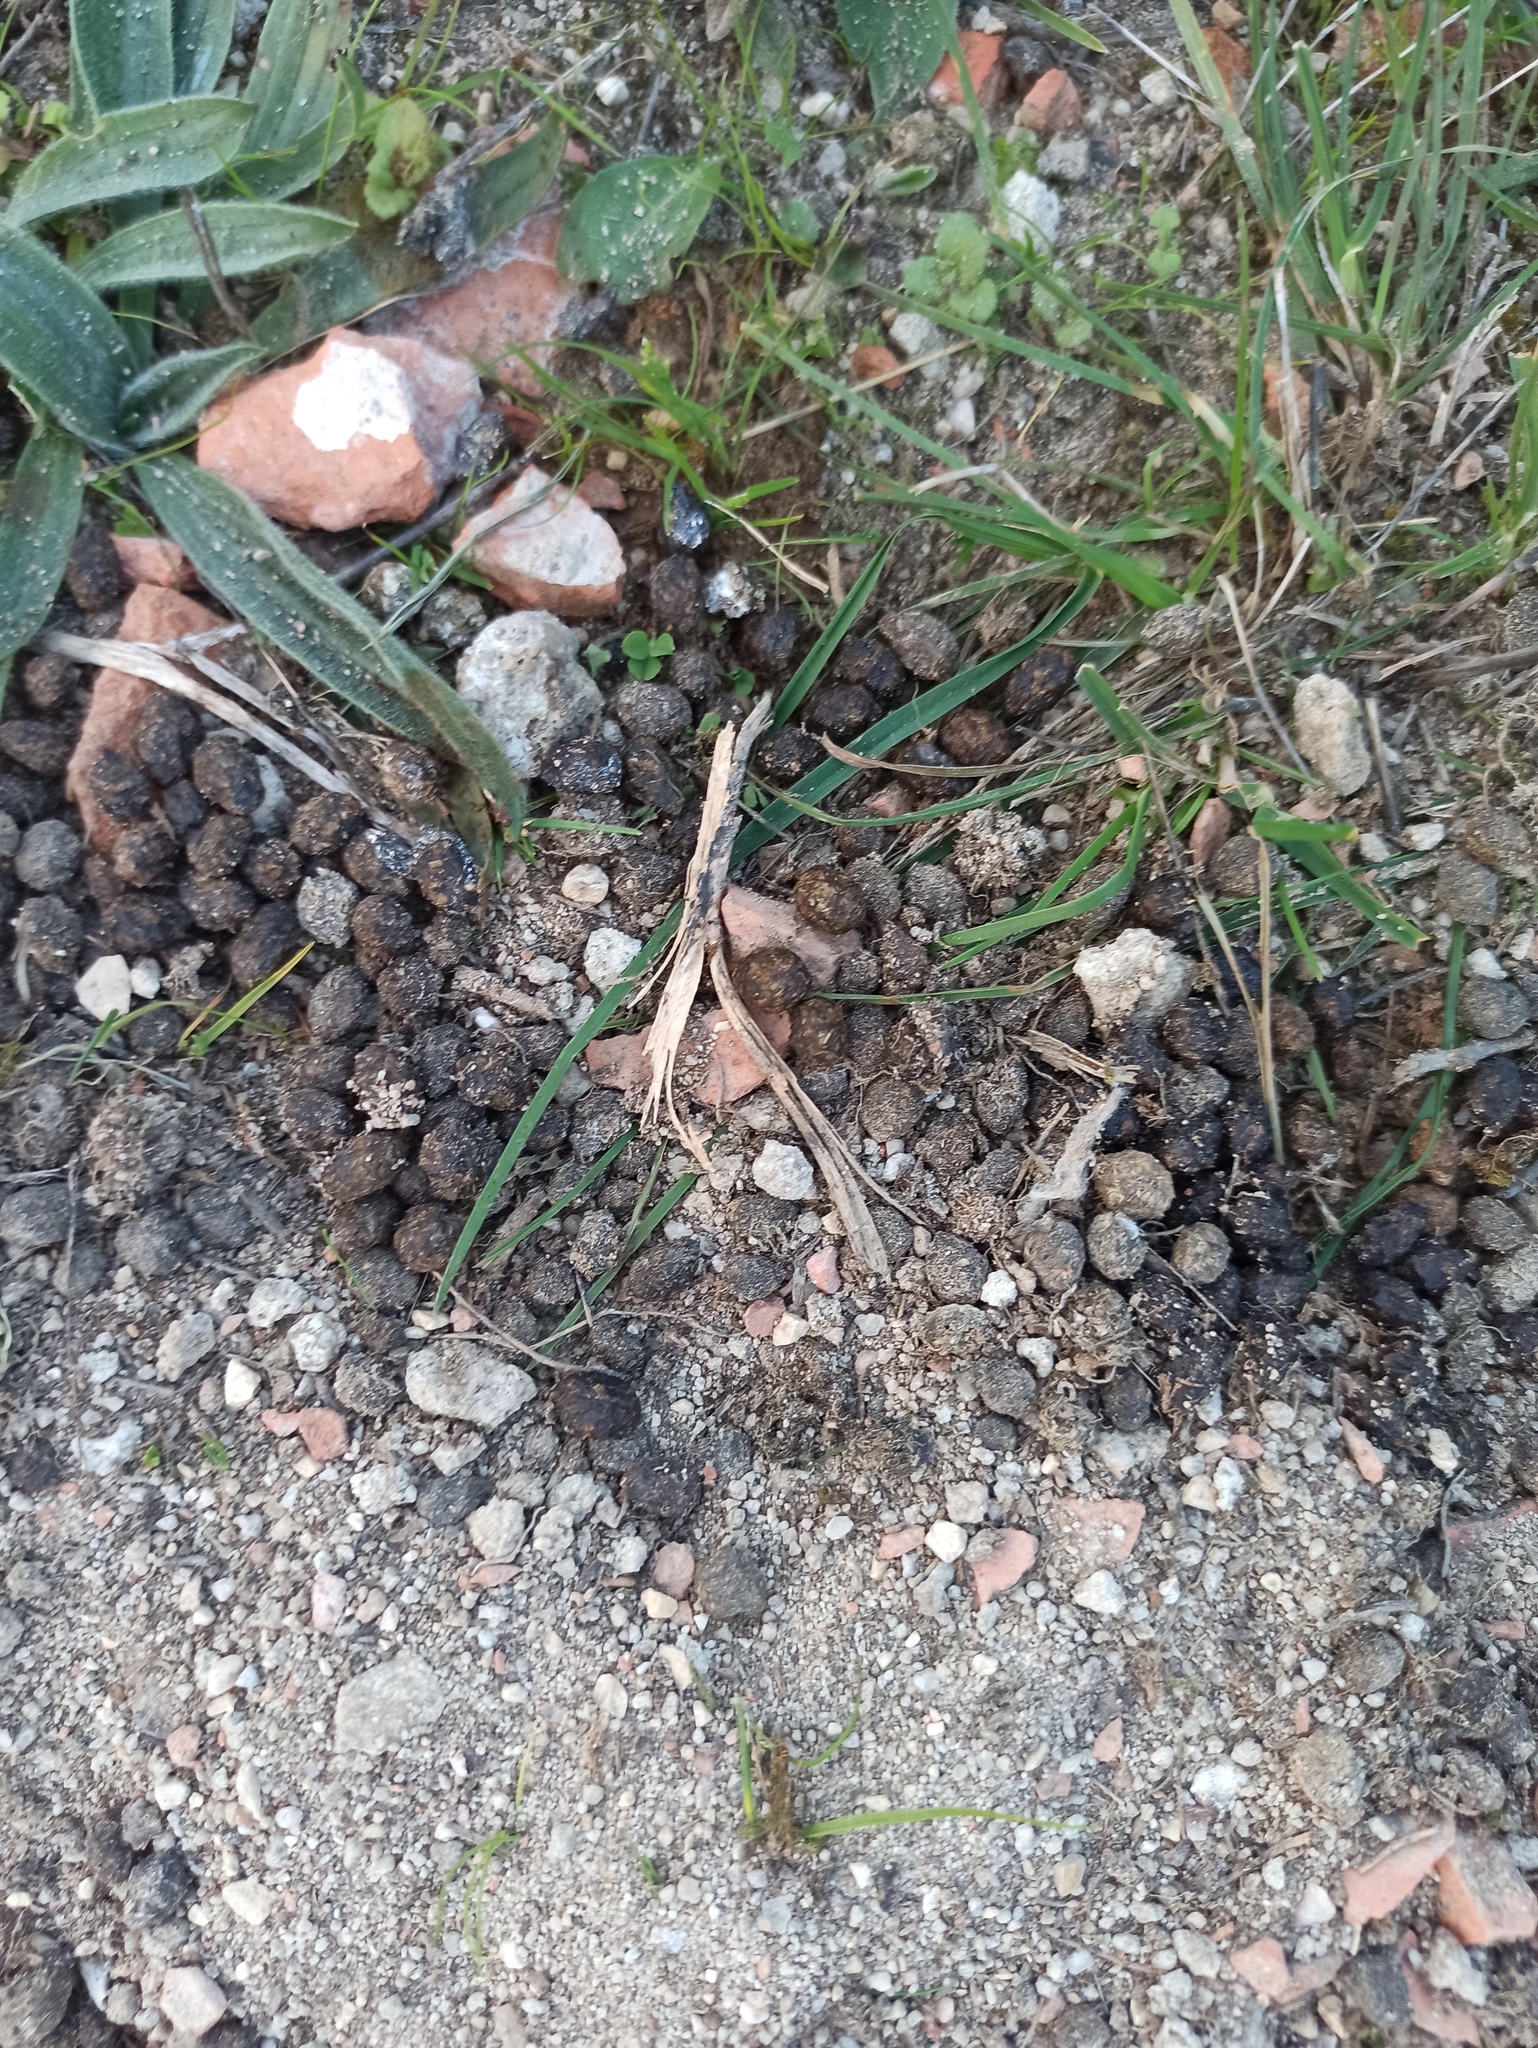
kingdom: Animalia
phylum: Chordata
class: Mammalia
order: Lagomorpha
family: Leporidae
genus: Oryctolagus
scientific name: Oryctolagus cuniculus
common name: European rabbit
